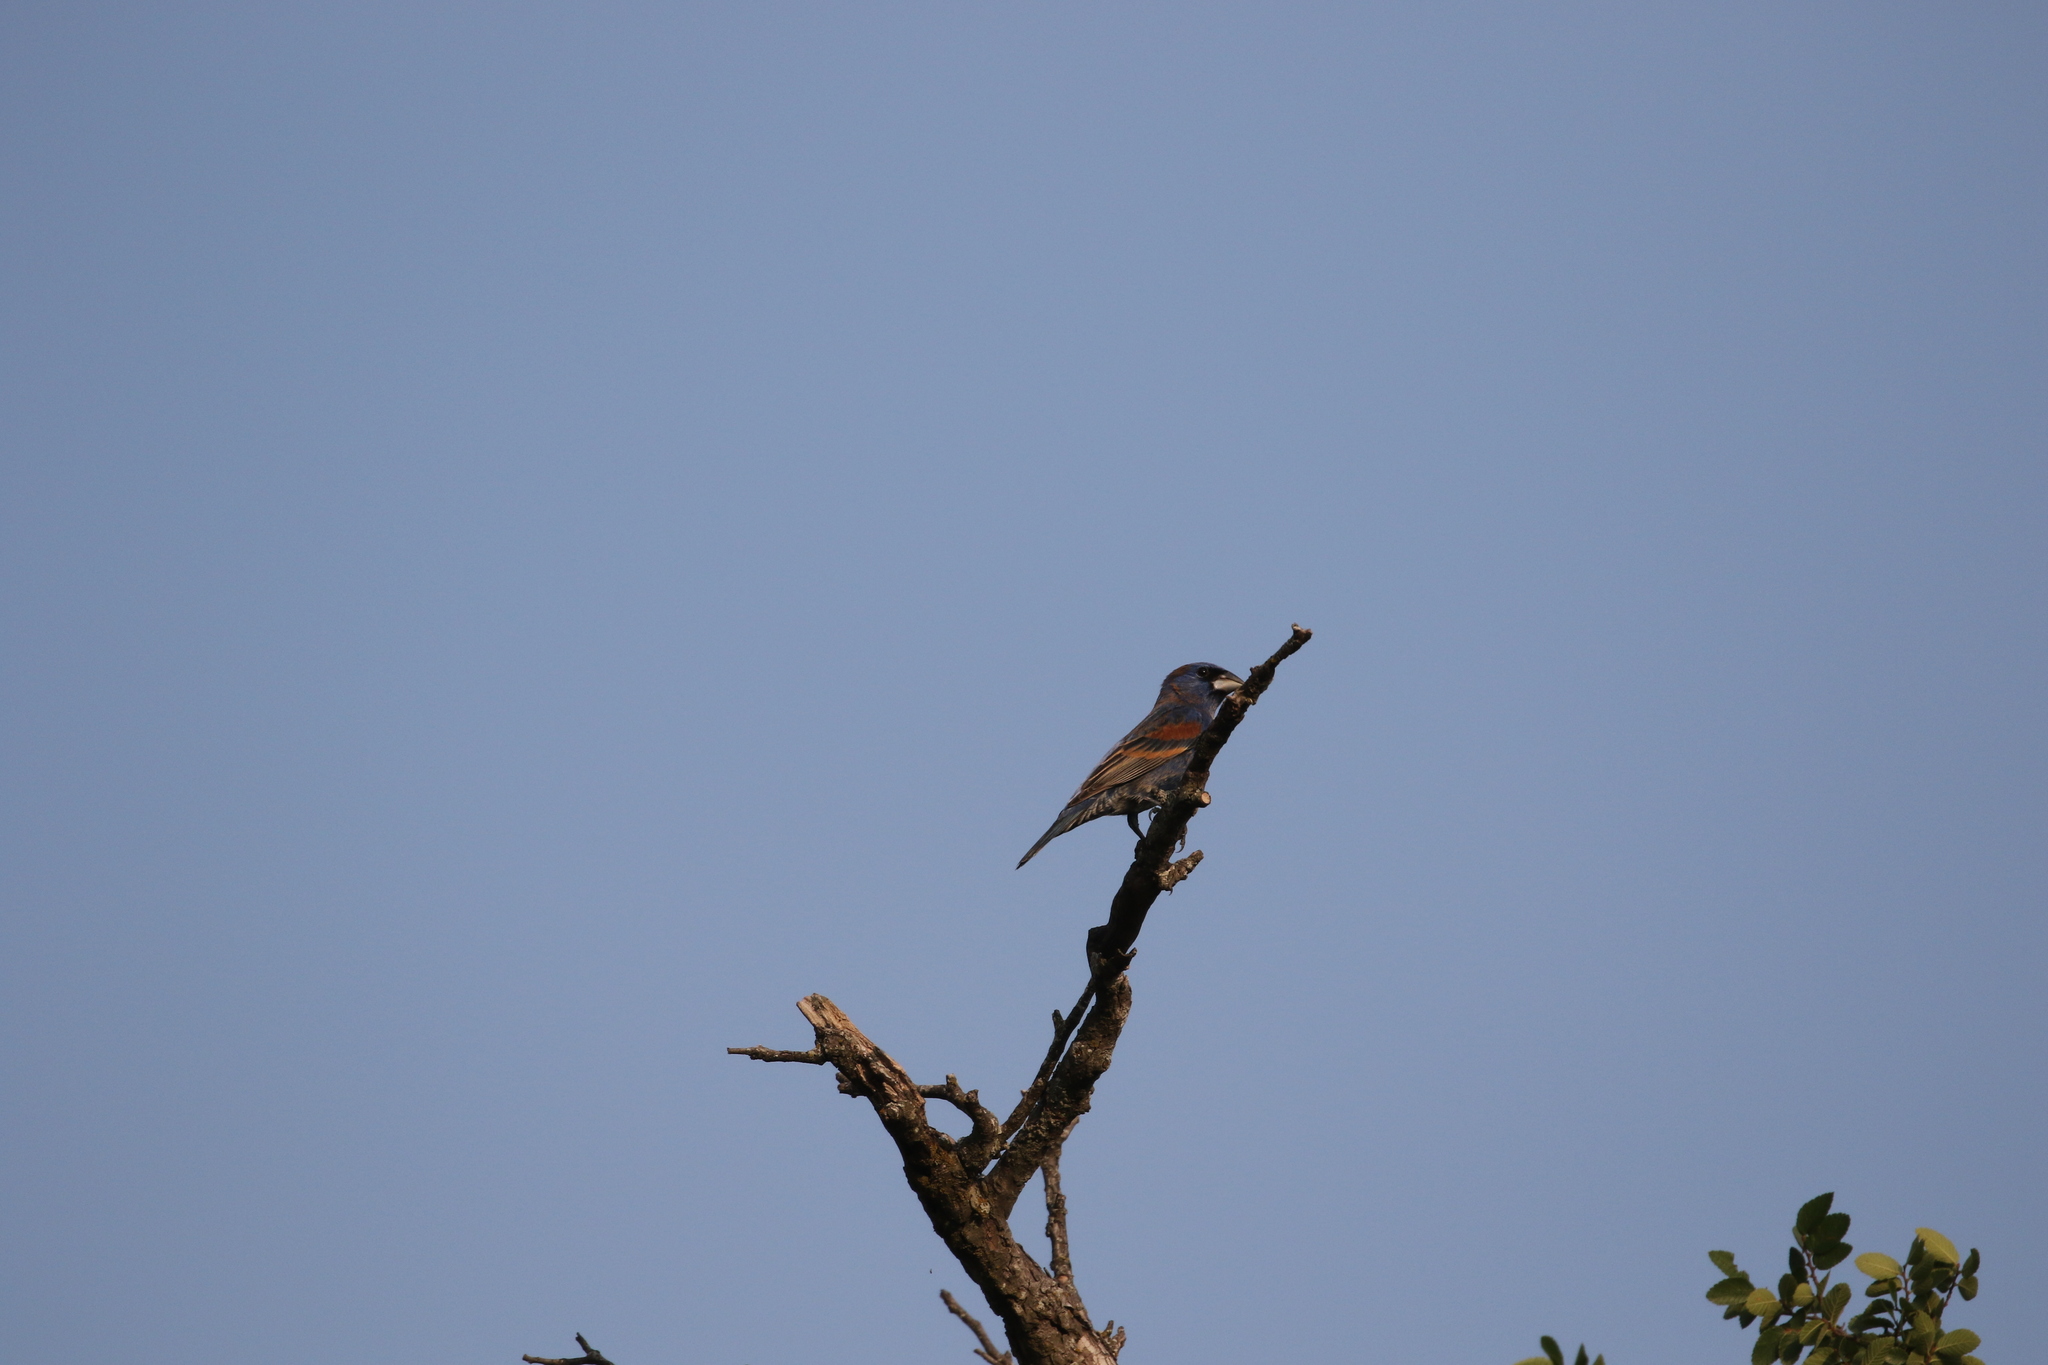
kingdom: Animalia
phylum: Chordata
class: Aves
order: Passeriformes
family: Cardinalidae
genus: Passerina
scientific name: Passerina caerulea
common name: Blue grosbeak
